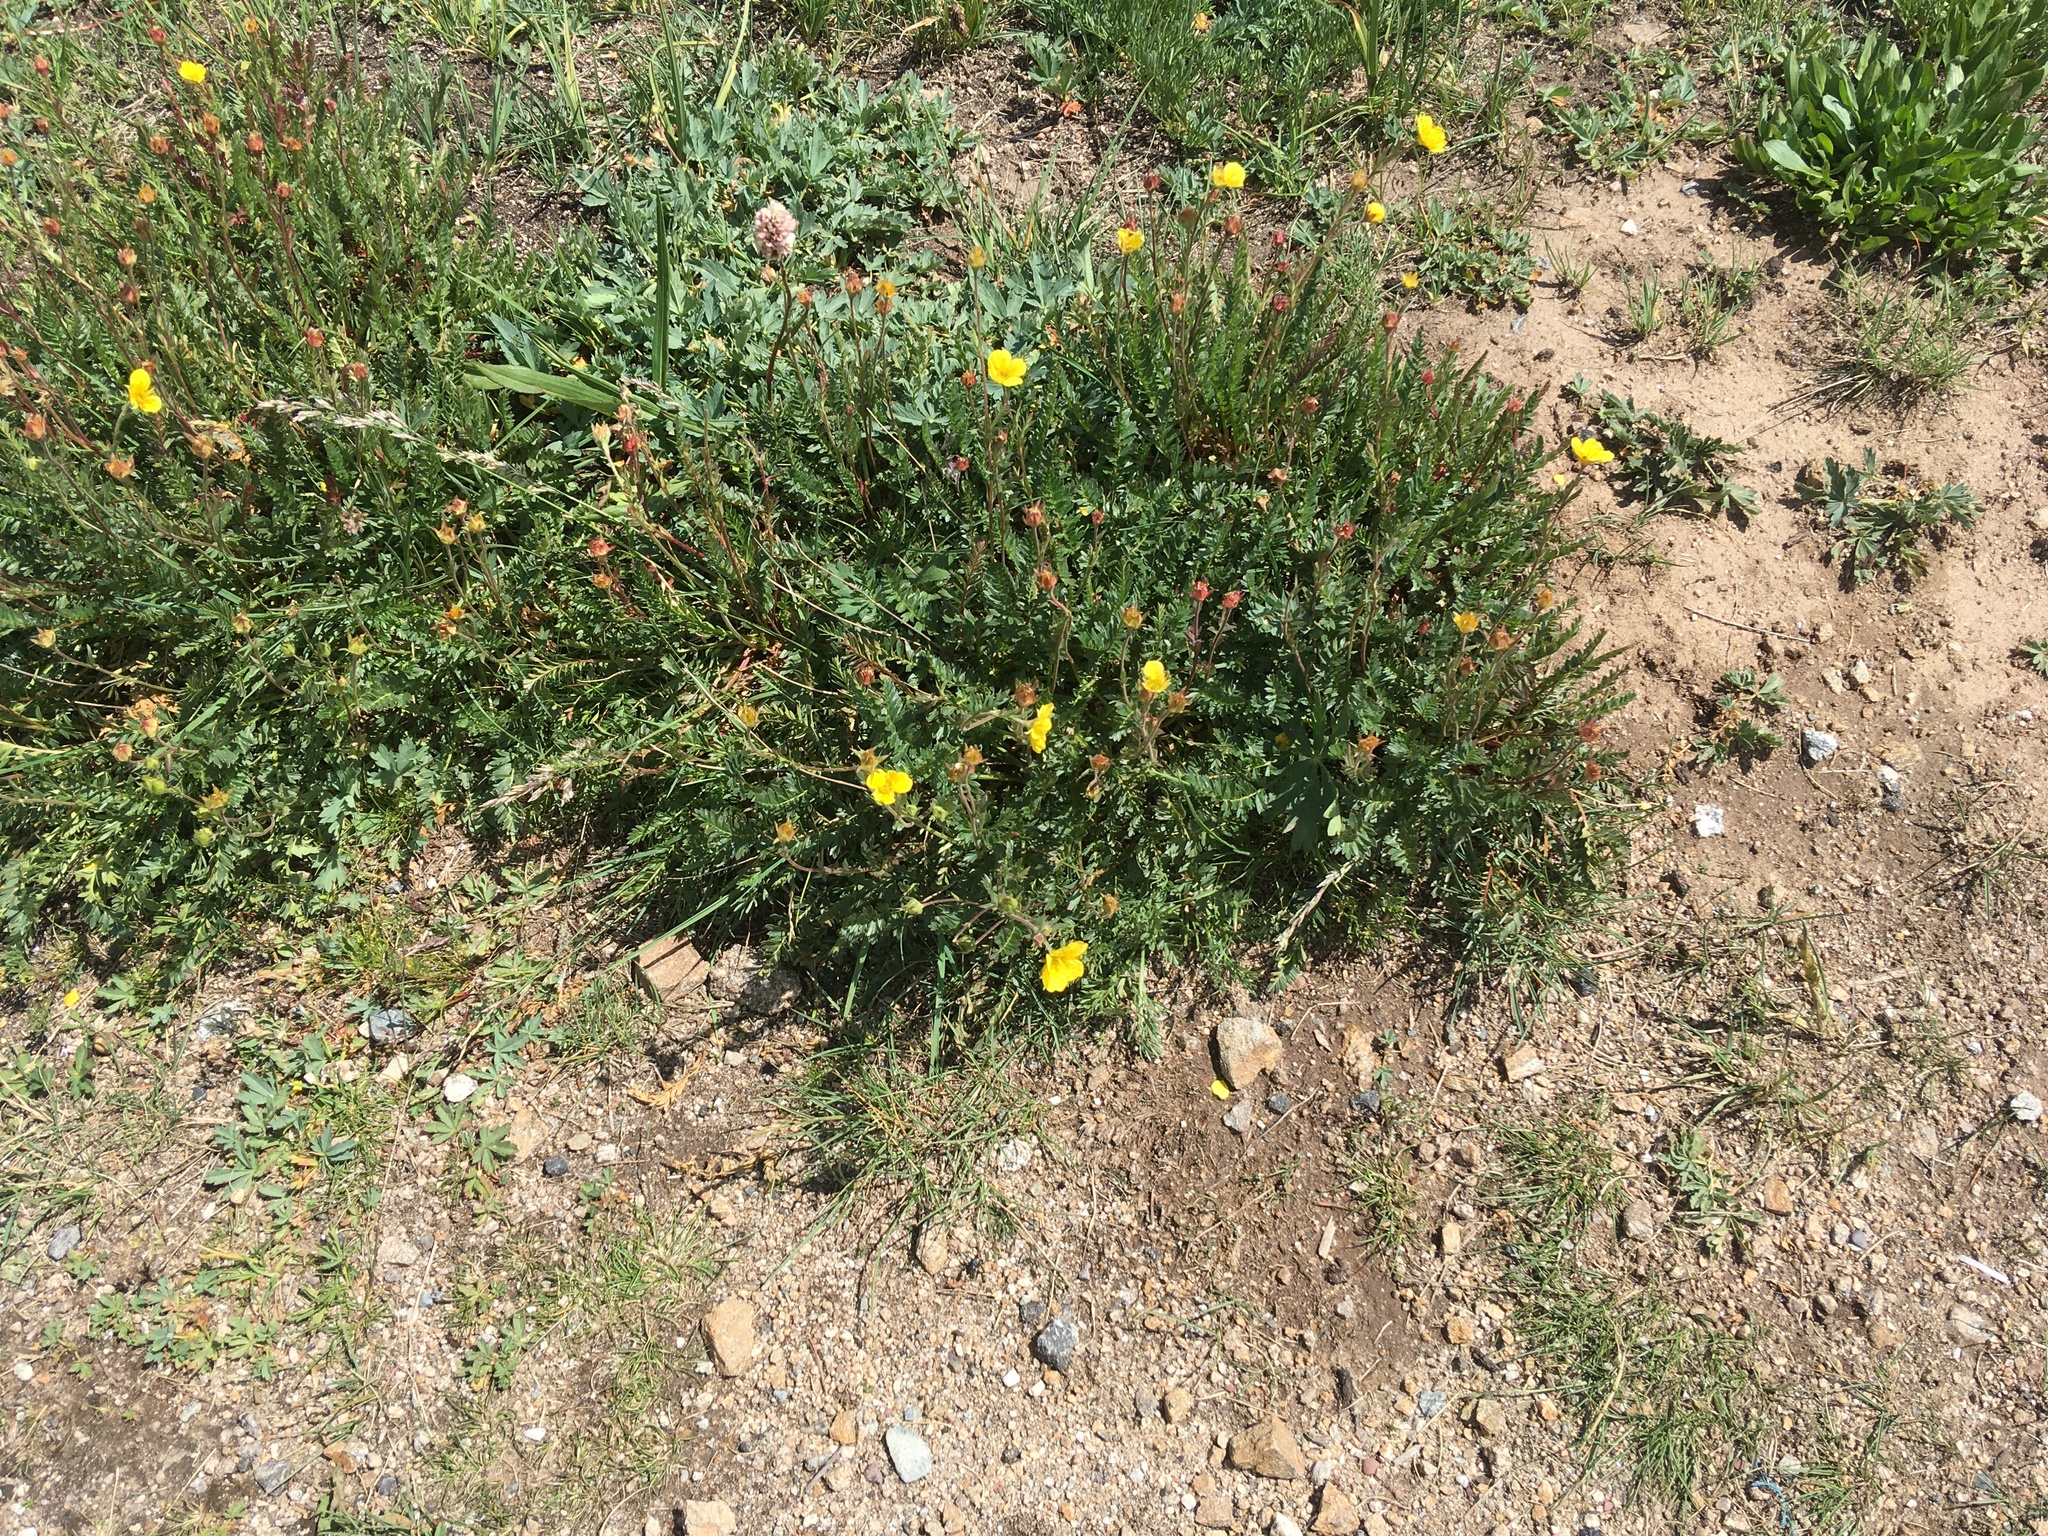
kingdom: Plantae
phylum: Tracheophyta
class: Magnoliopsida
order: Rosales
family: Rosaceae
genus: Geum
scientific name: Geum rossii
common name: Alpine avens
